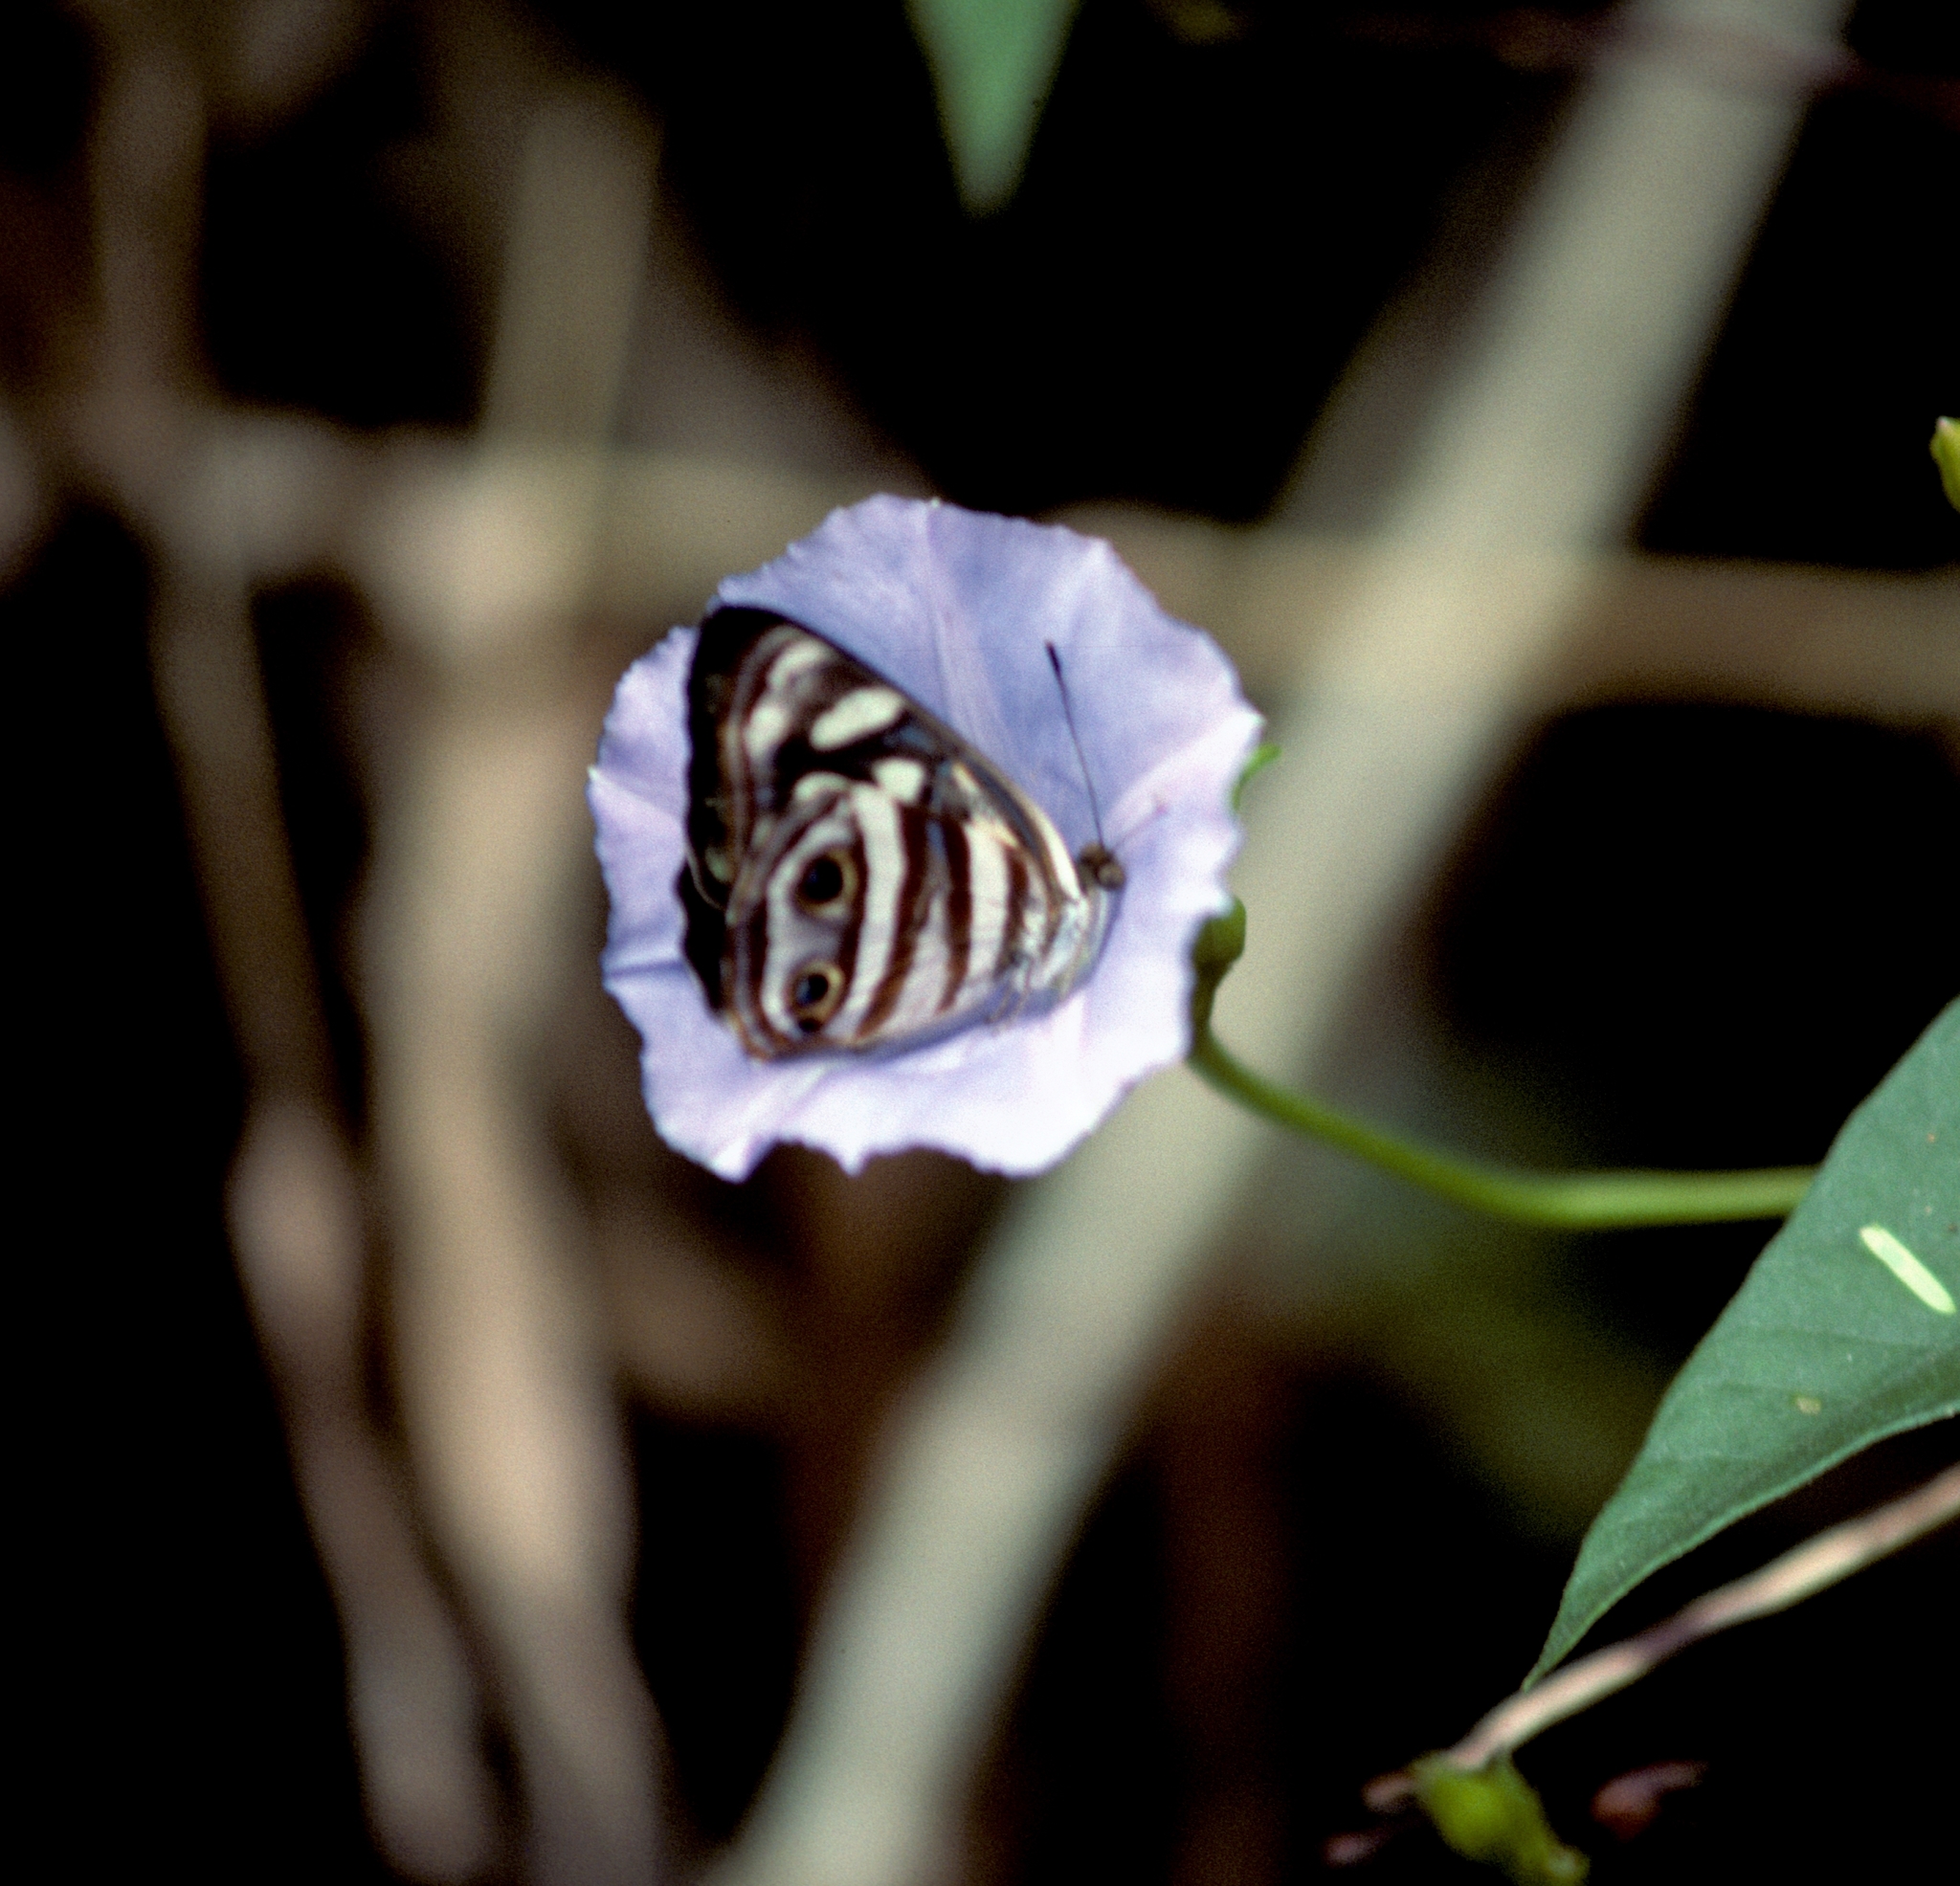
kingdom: Animalia
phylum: Arthropoda
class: Insecta
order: Lepidoptera
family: Nymphalidae
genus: Dynamine
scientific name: Dynamine mylitta
